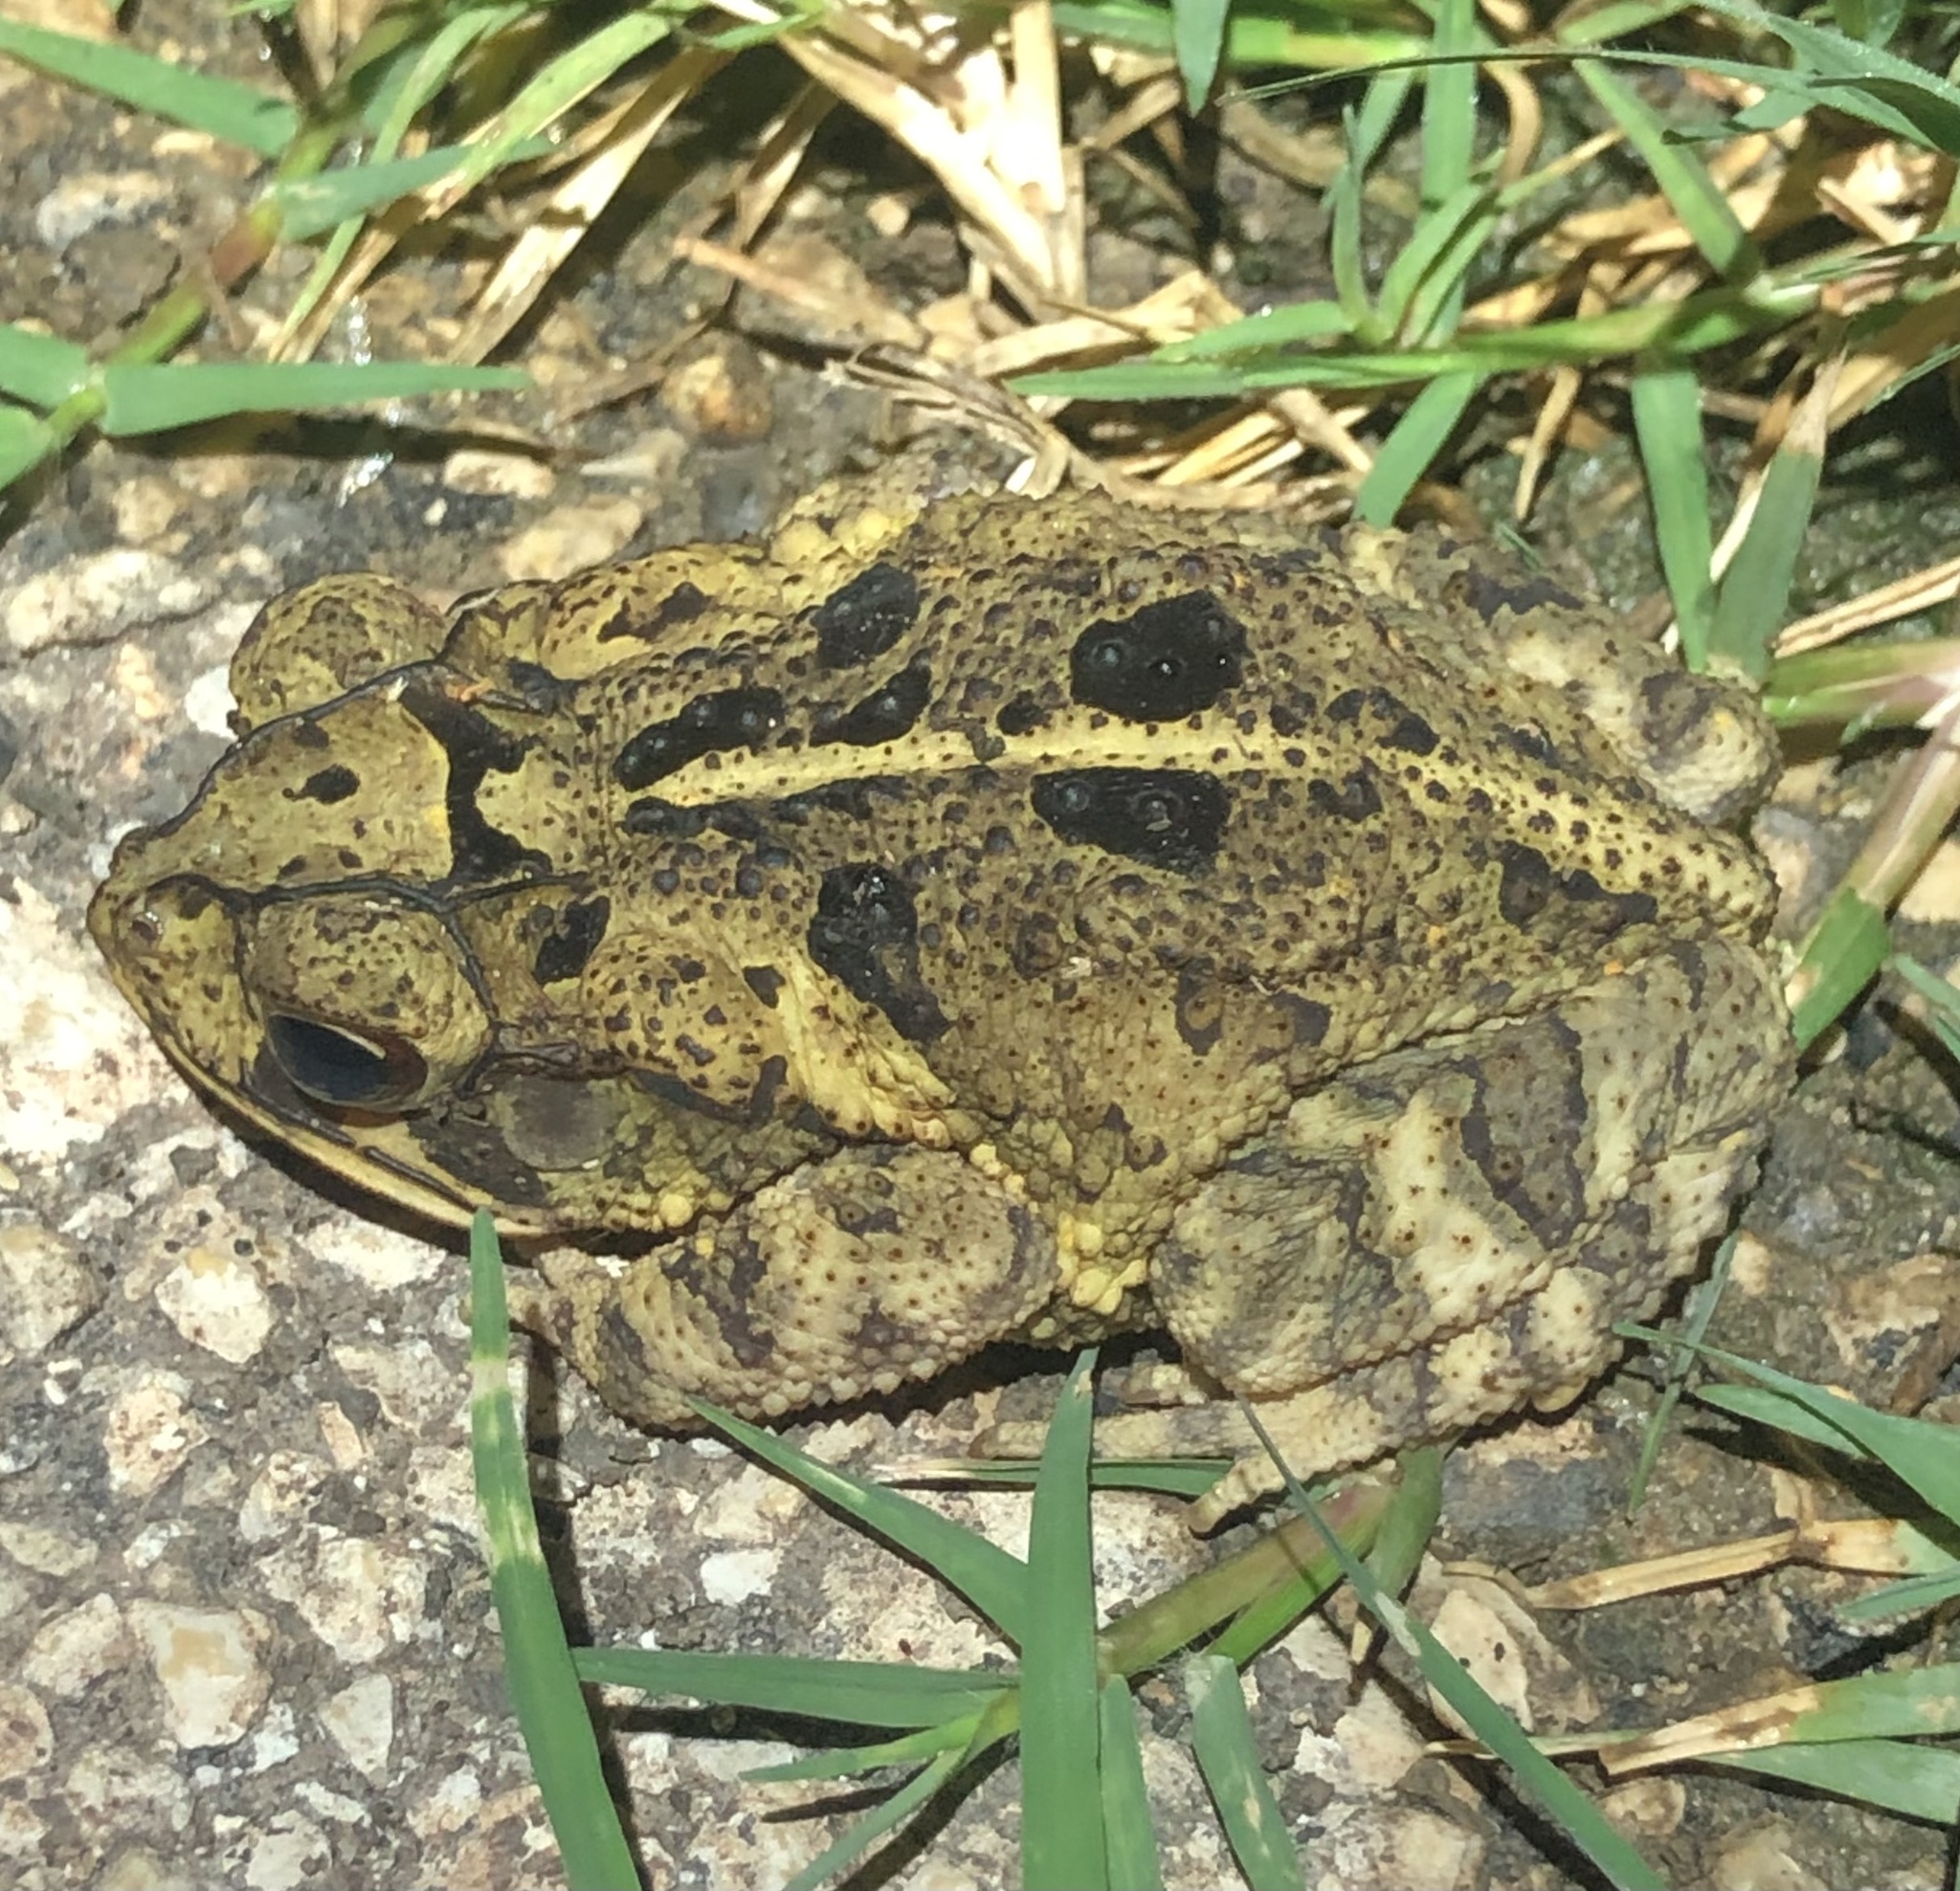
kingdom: Animalia
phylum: Chordata
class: Amphibia
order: Anura
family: Bufonidae
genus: Incilius
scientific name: Incilius nebulifer
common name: Gulf coast toad
